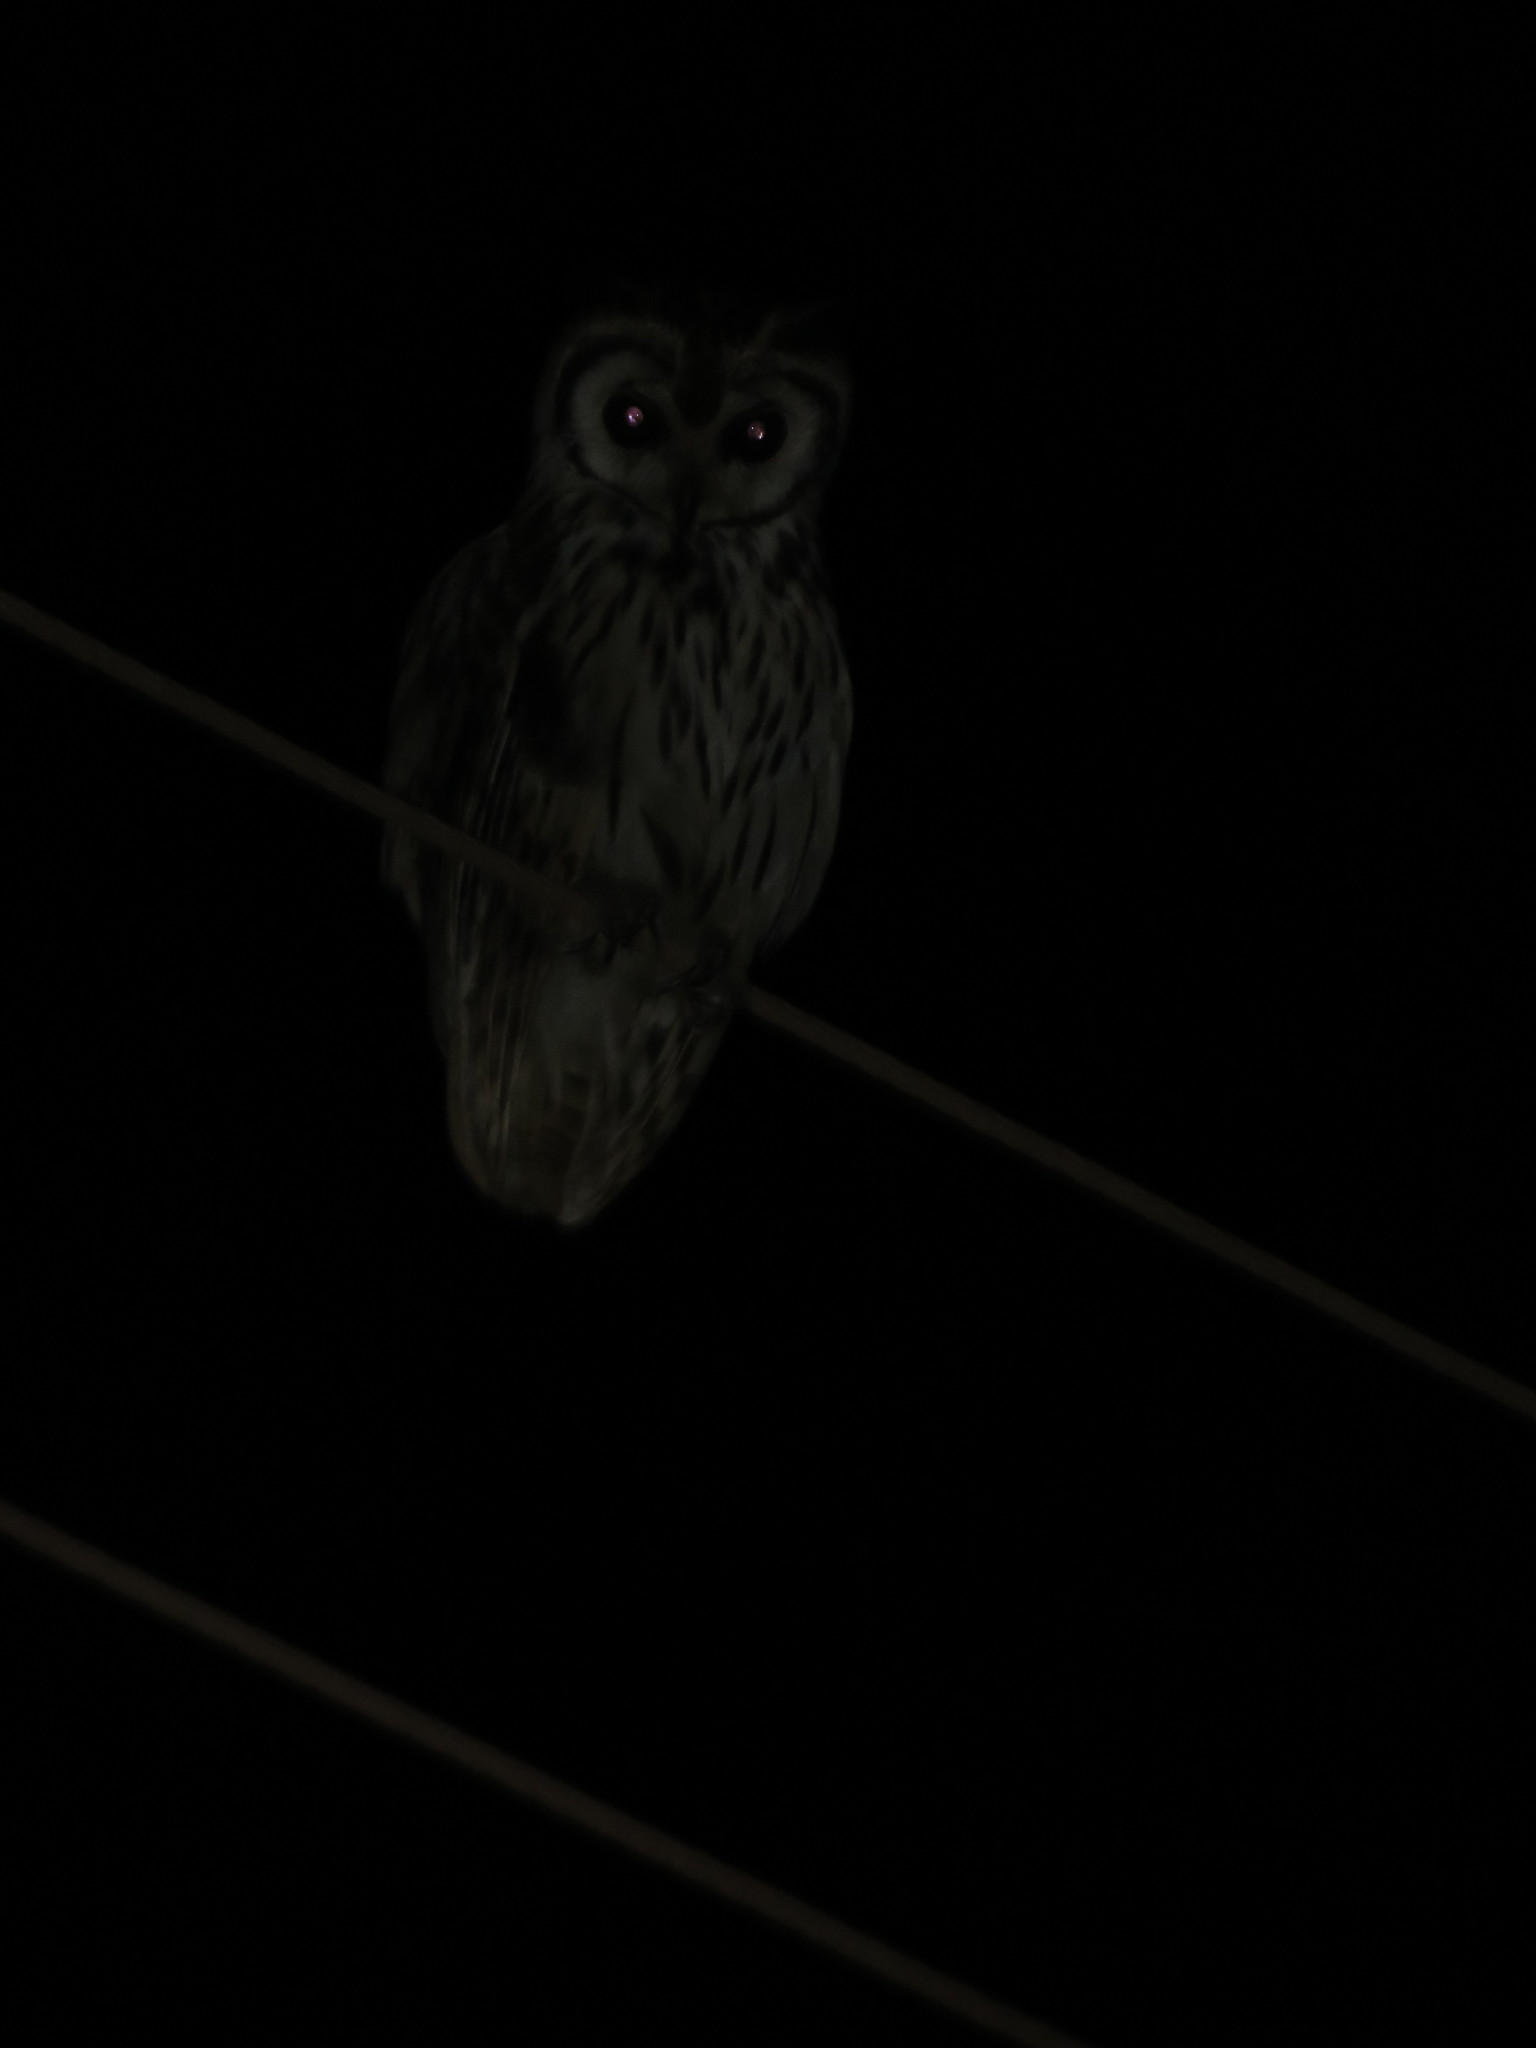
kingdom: Animalia
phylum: Chordata
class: Aves
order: Strigiformes
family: Strigidae
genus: Pseudoscops
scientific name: Pseudoscops clamator
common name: Striped owl
